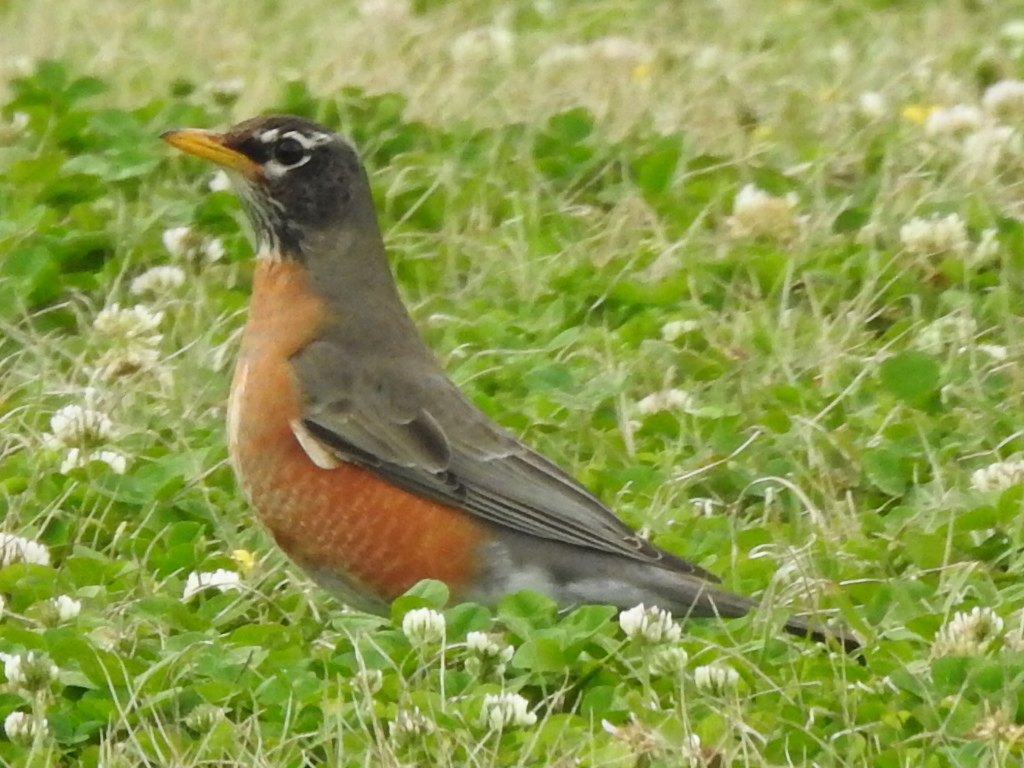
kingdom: Animalia
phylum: Chordata
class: Aves
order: Passeriformes
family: Turdidae
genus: Turdus
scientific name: Turdus migratorius
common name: American robin
